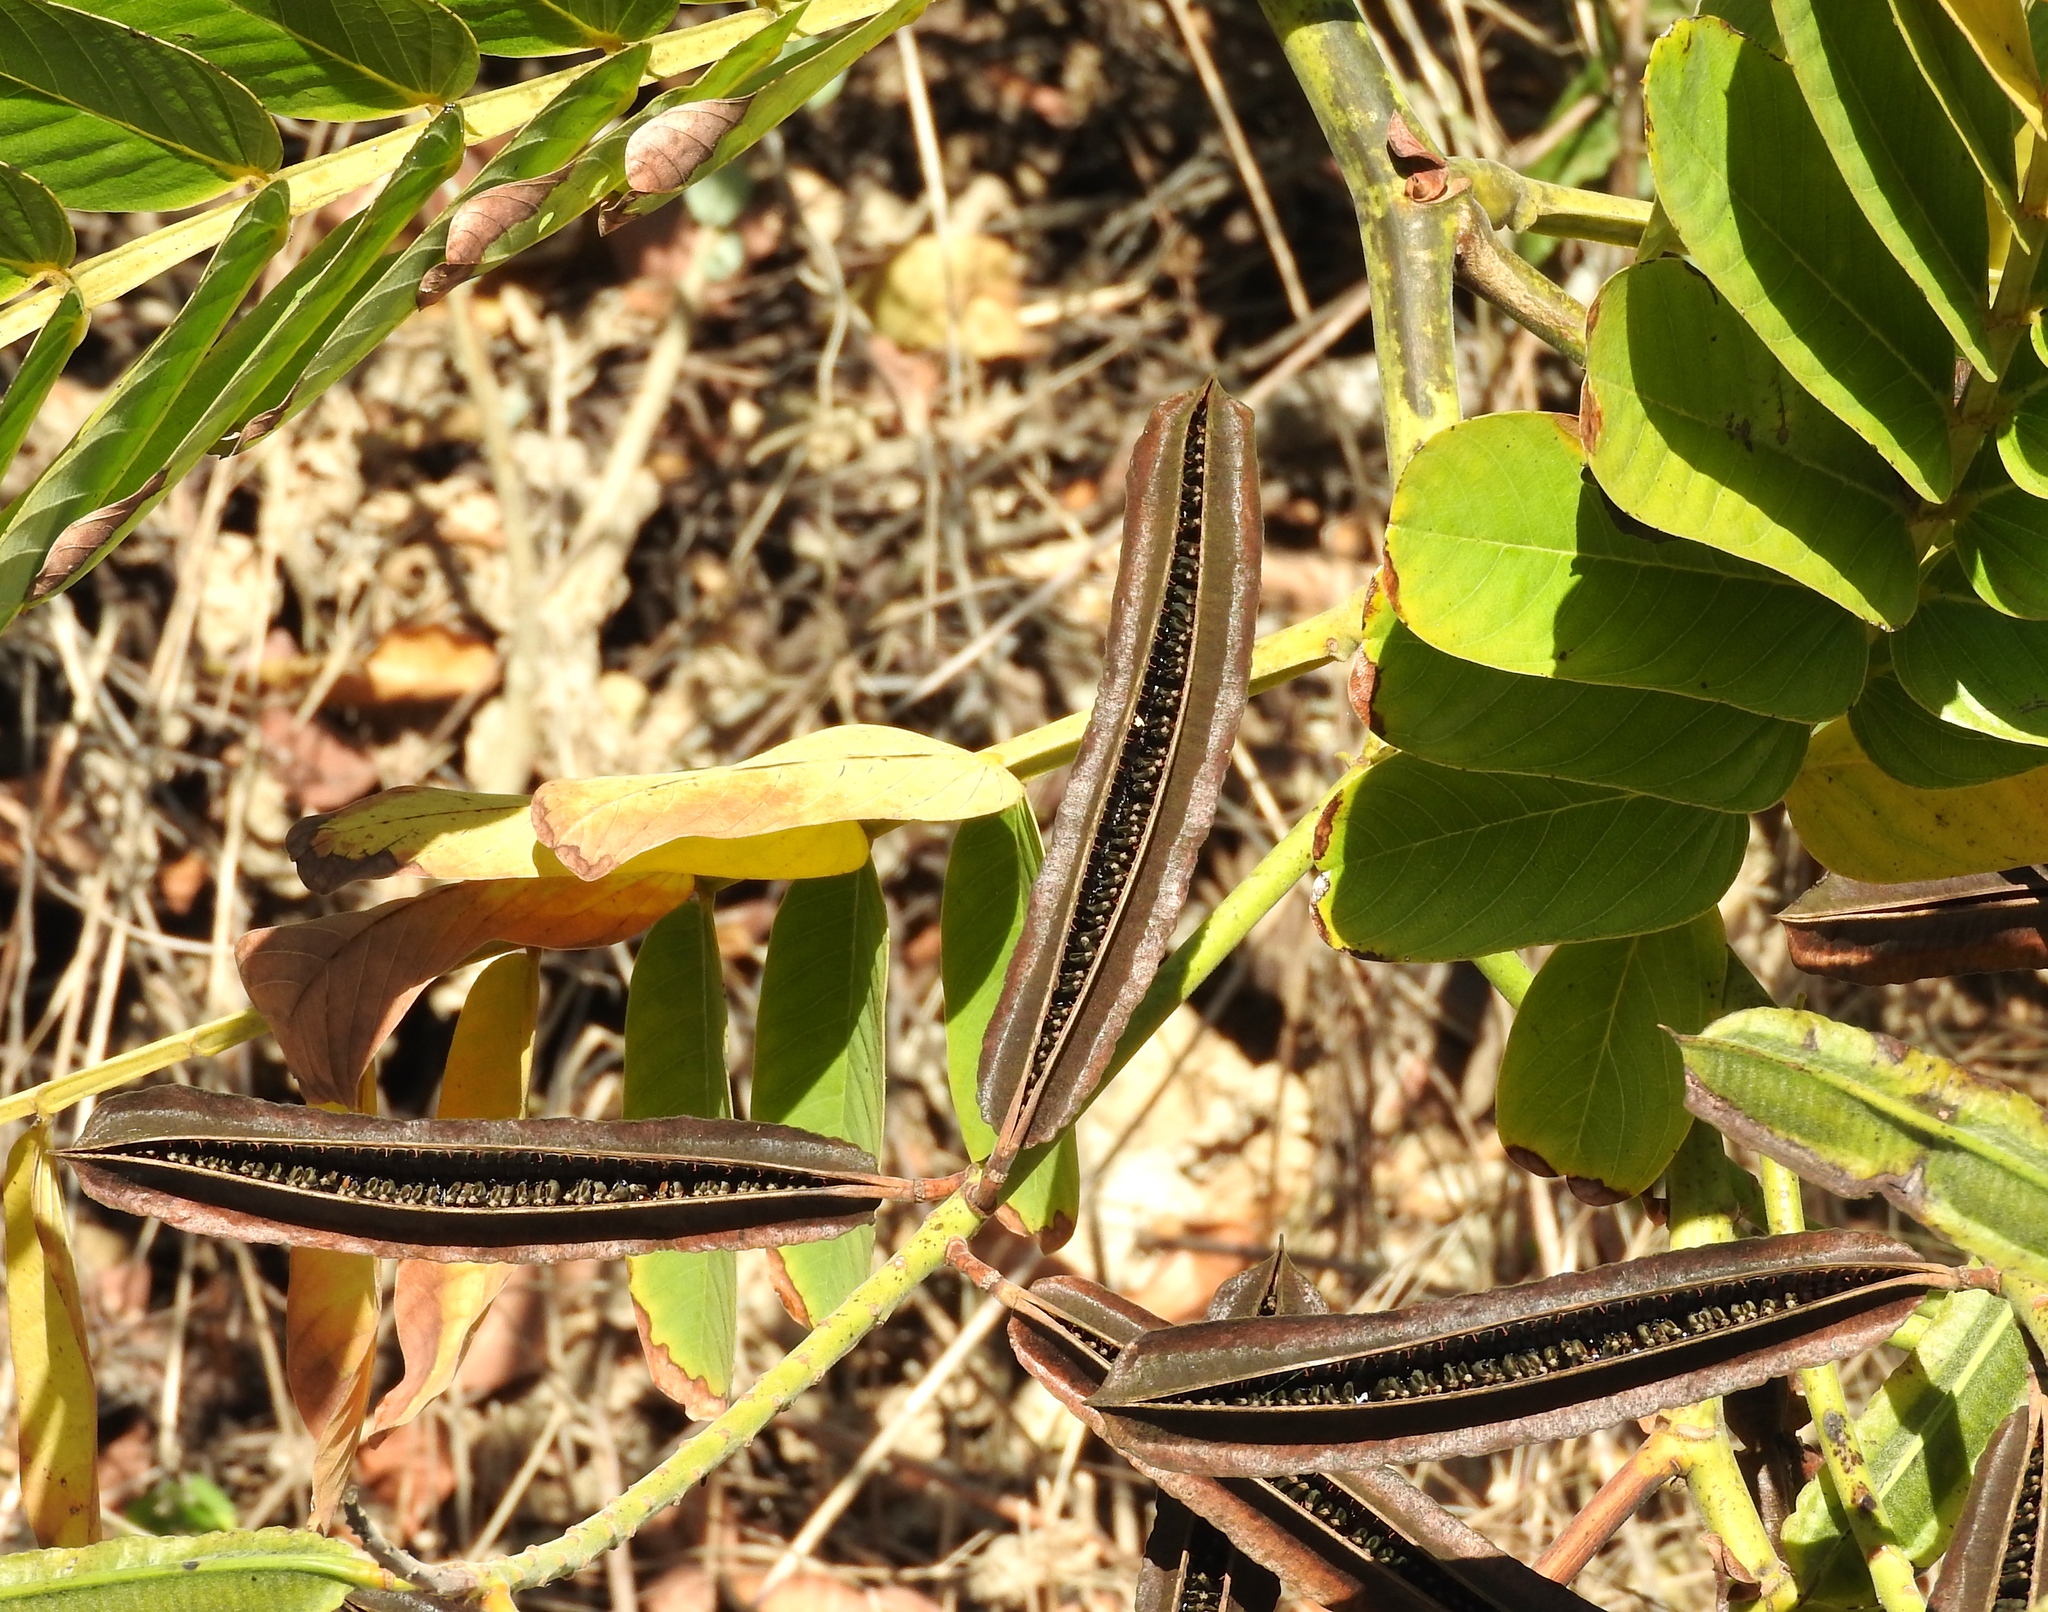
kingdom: Plantae
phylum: Tracheophyta
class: Magnoliopsida
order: Fabales
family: Fabaceae
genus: Senna
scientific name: Senna alata
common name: Emperor's candlesticks
